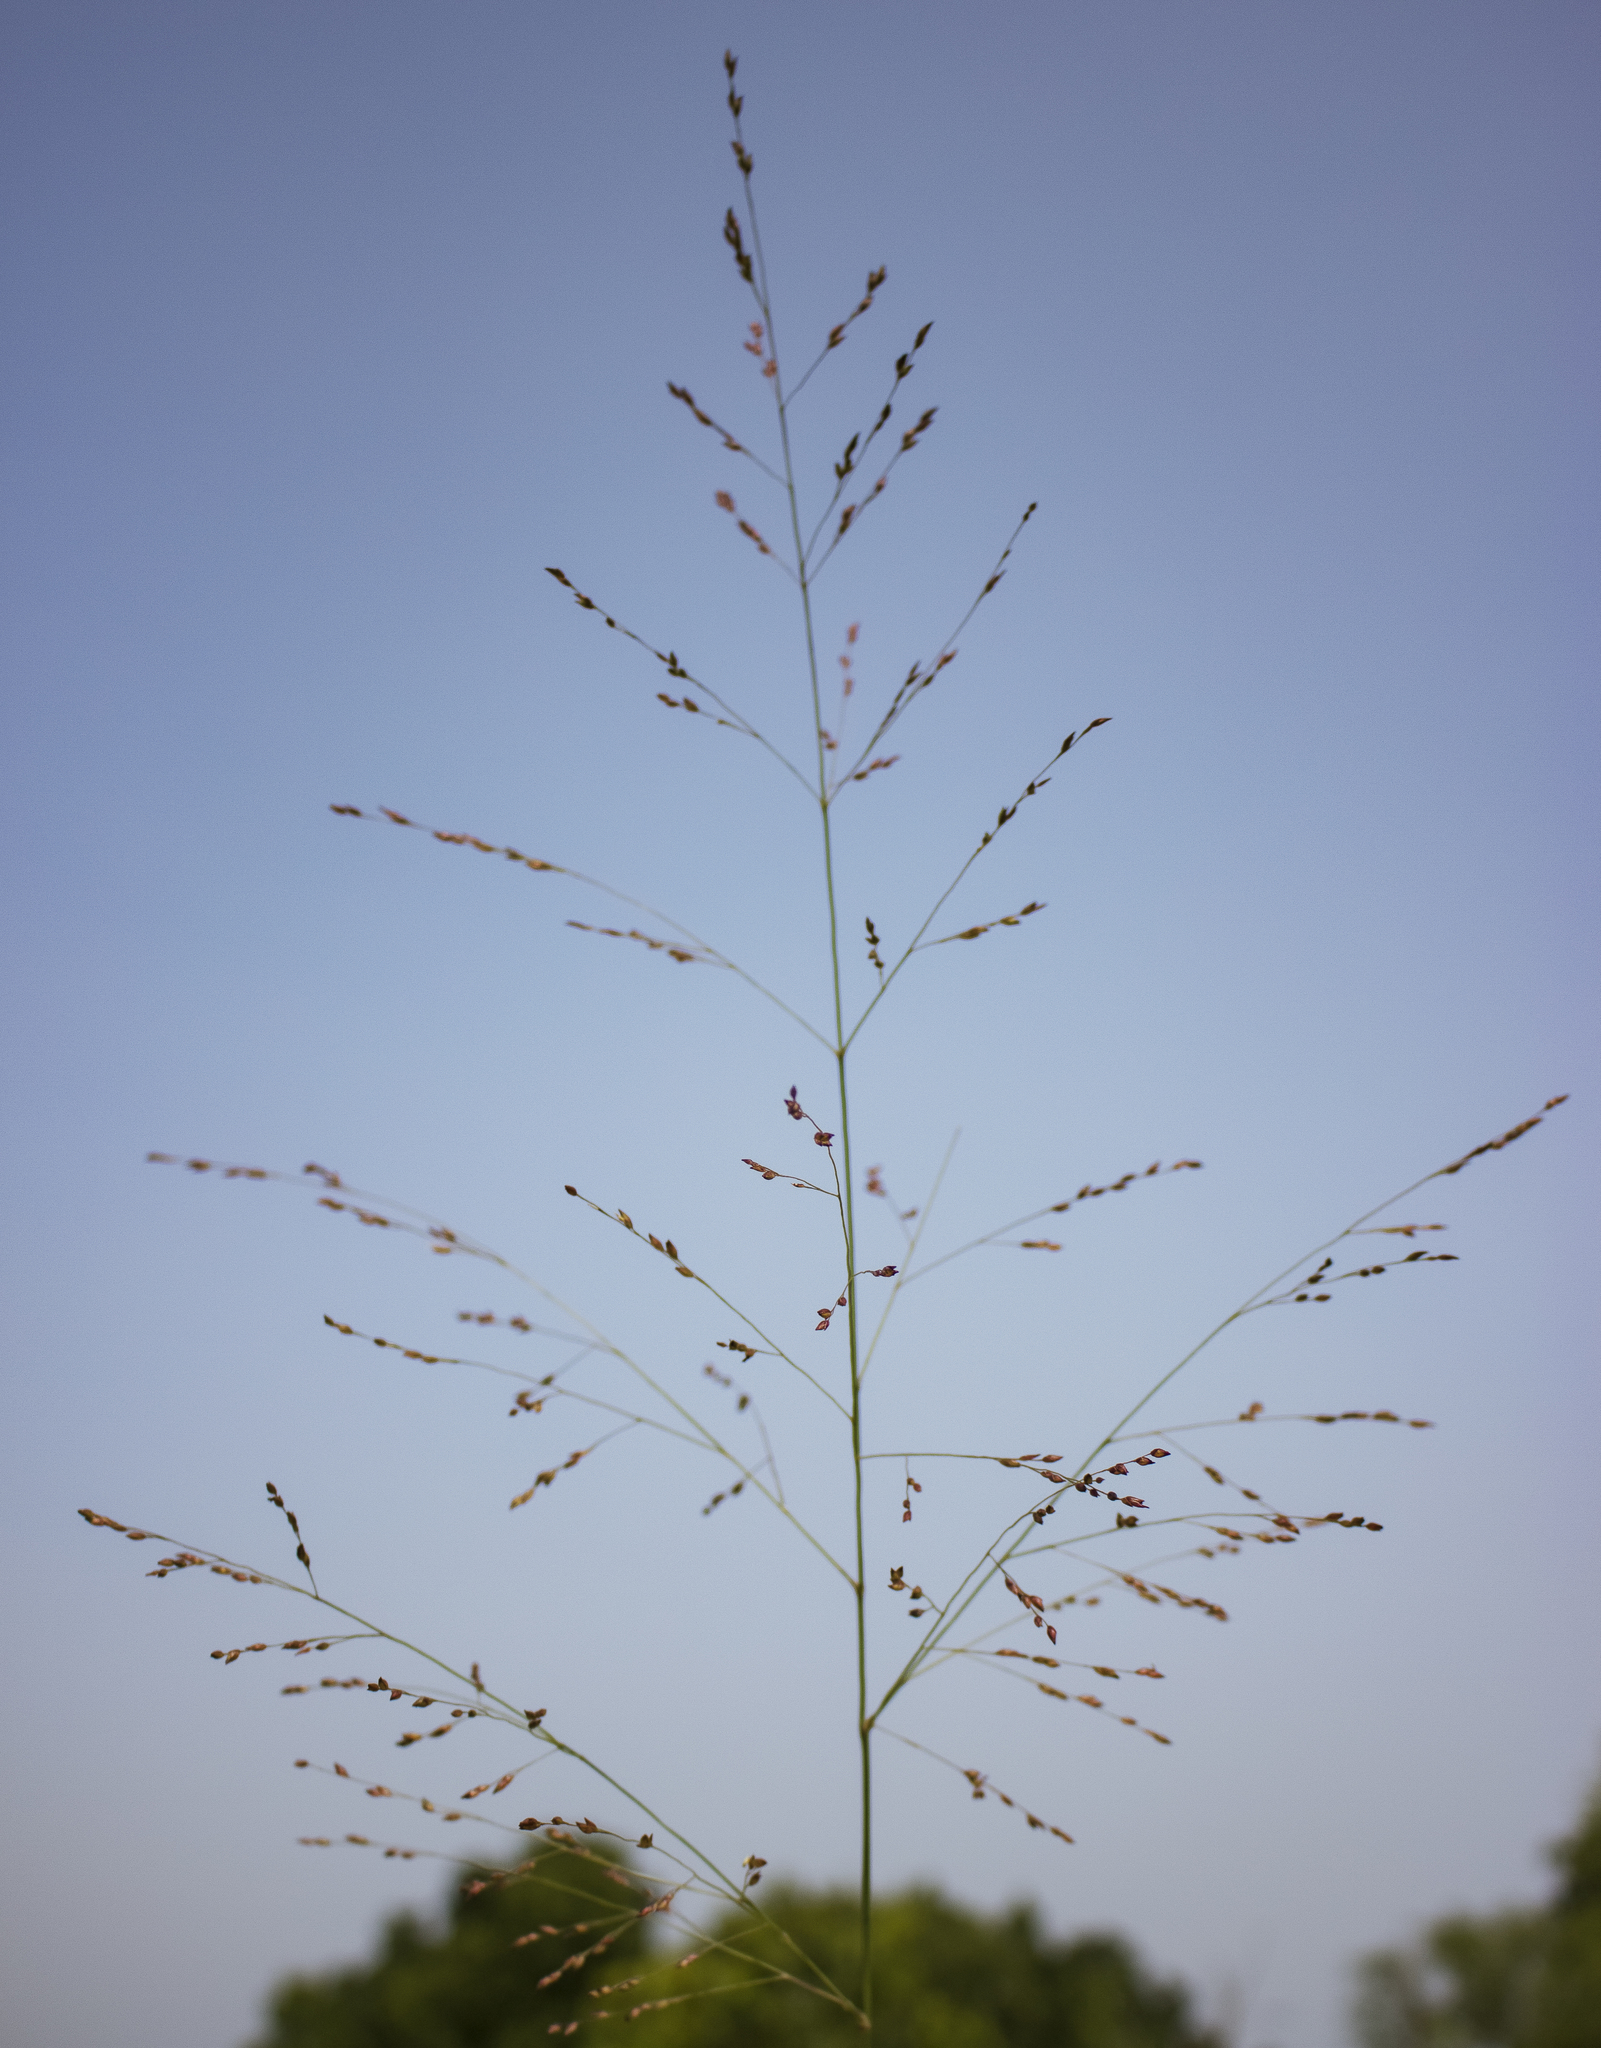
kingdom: Plantae
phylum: Tracheophyta
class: Liliopsida
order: Poales
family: Poaceae
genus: Panicum
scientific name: Panicum virgatum
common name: Switchgrass
